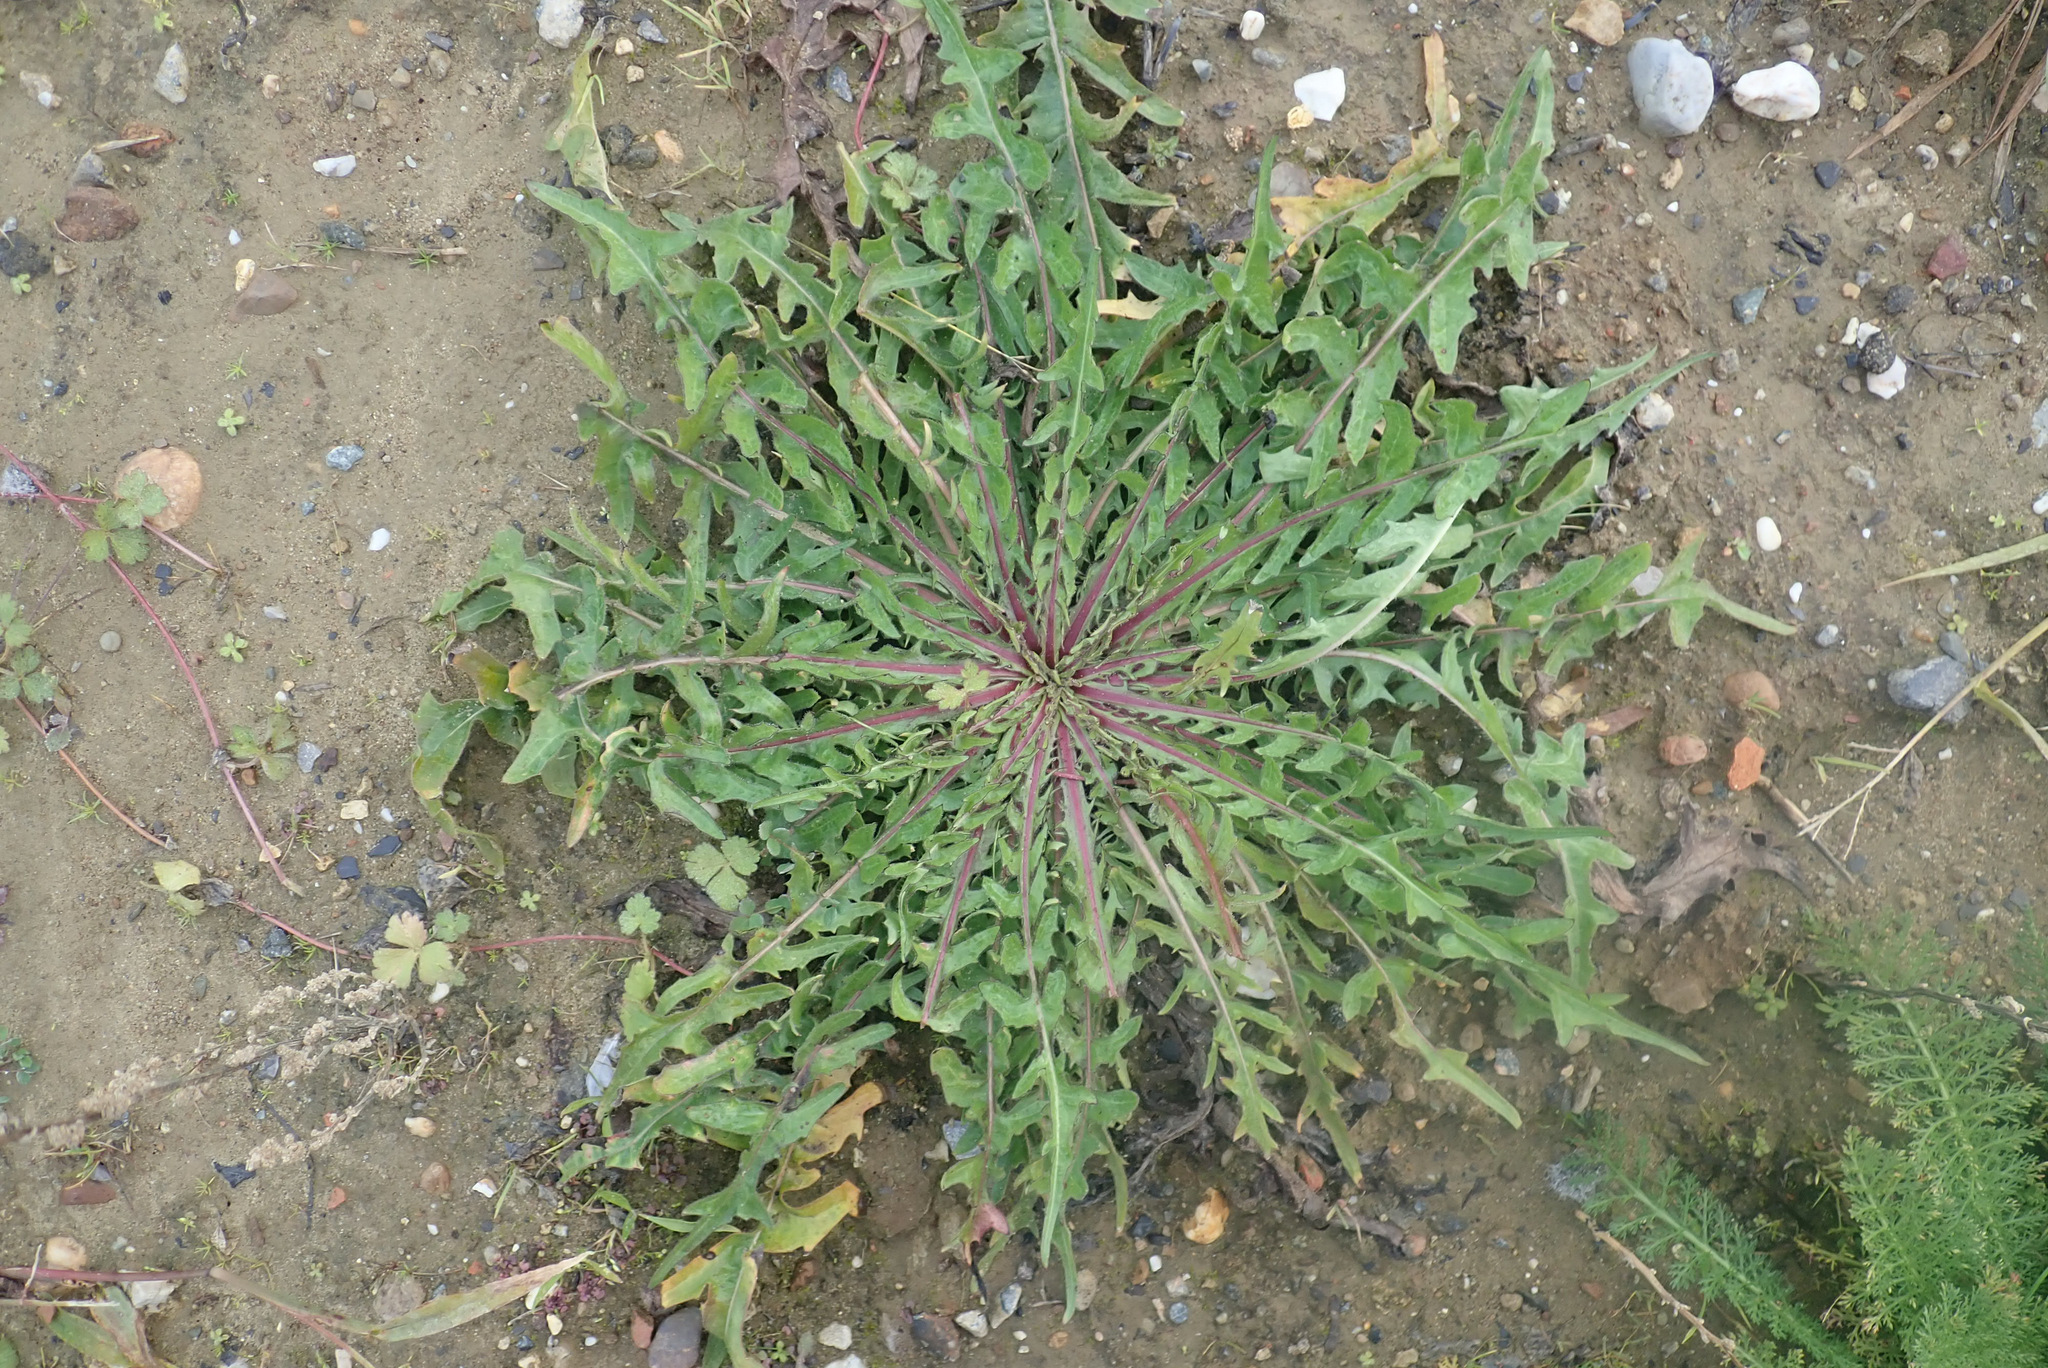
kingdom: Plantae
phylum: Tracheophyta
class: Magnoliopsida
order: Asterales
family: Asteraceae
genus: Crepis
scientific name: Crepis biennis
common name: Rough hawk's-beard
